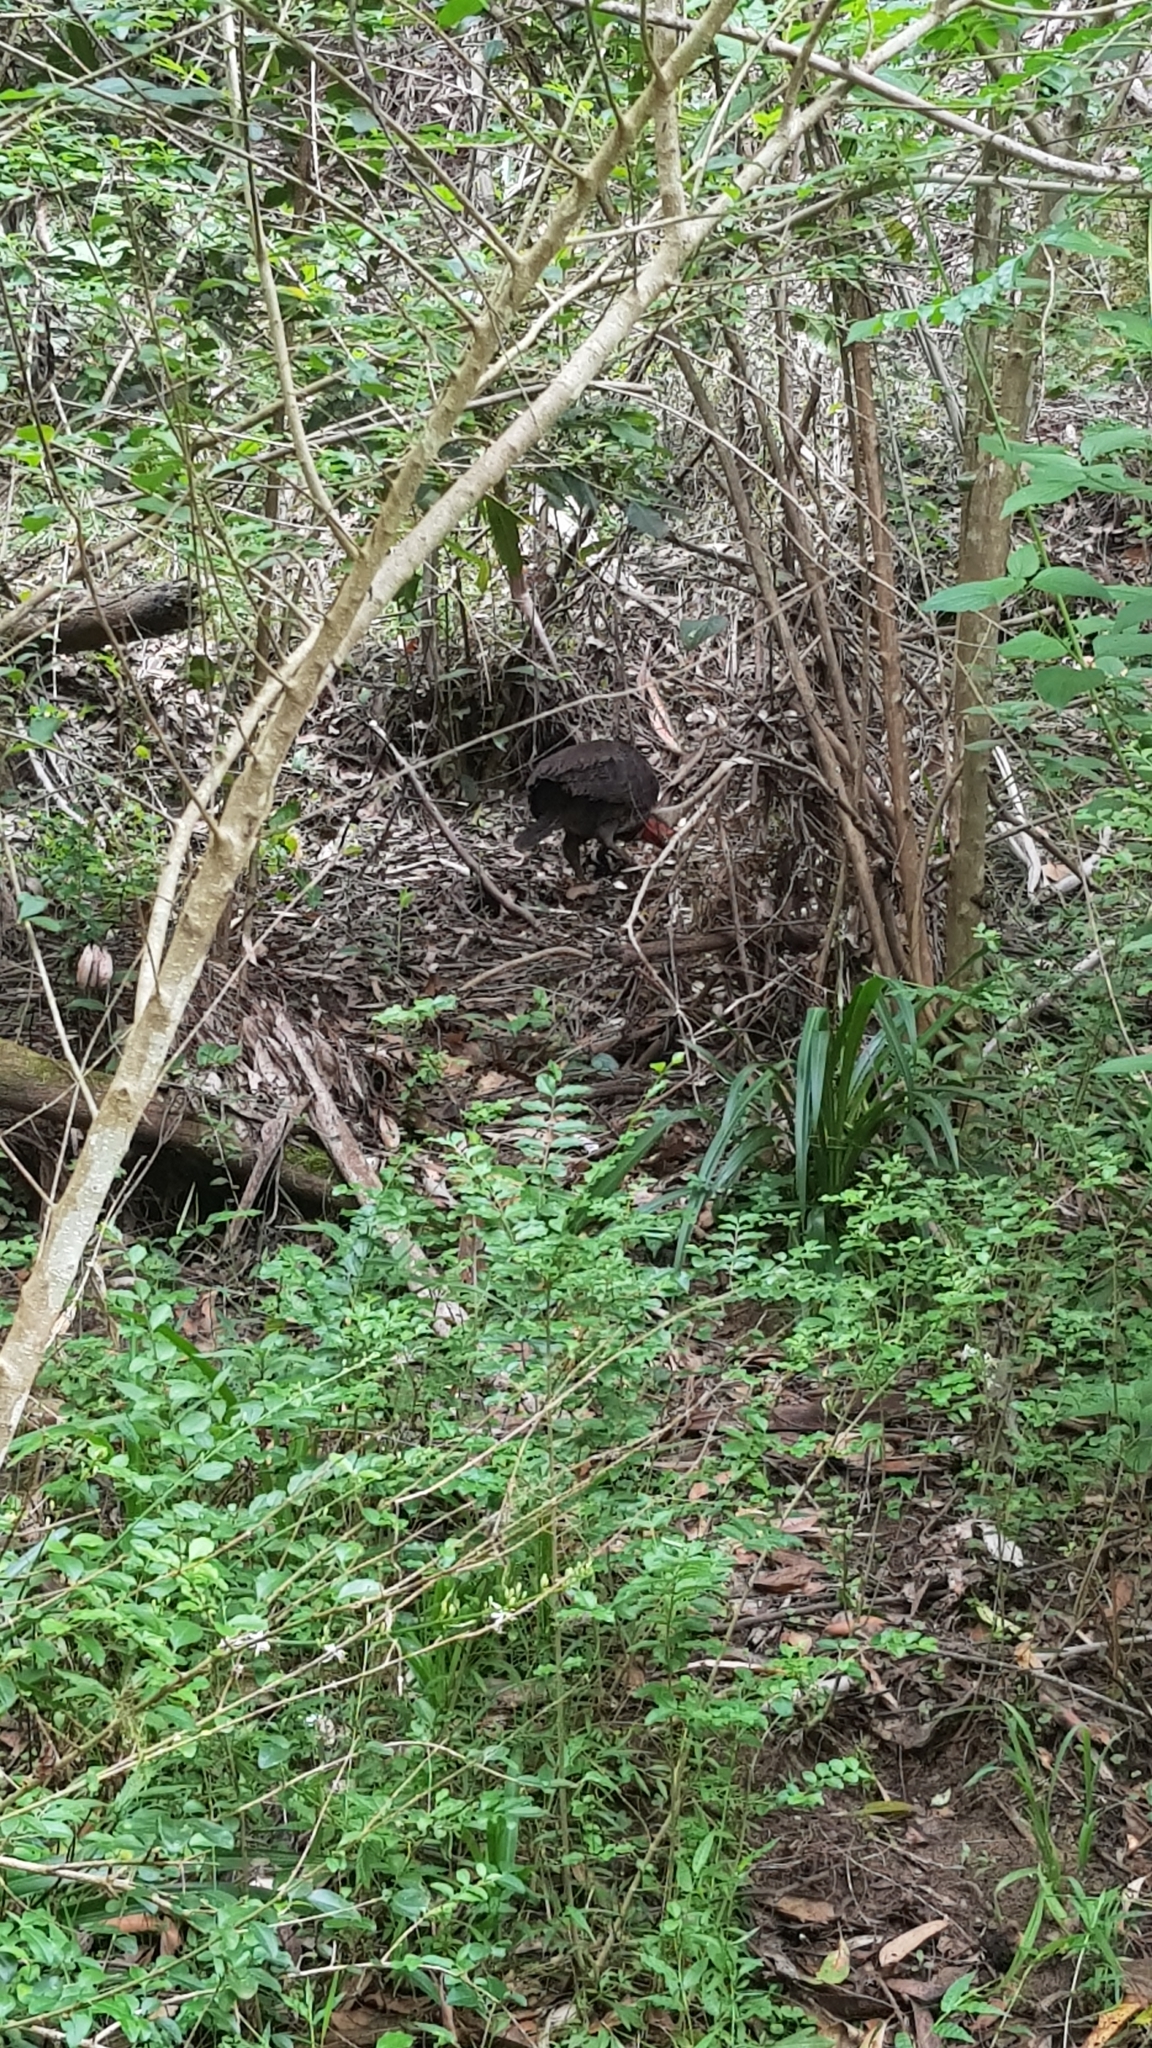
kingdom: Animalia
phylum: Chordata
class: Aves
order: Galliformes
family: Megapodiidae
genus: Alectura
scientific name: Alectura lathami
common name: Australian brushturkey
